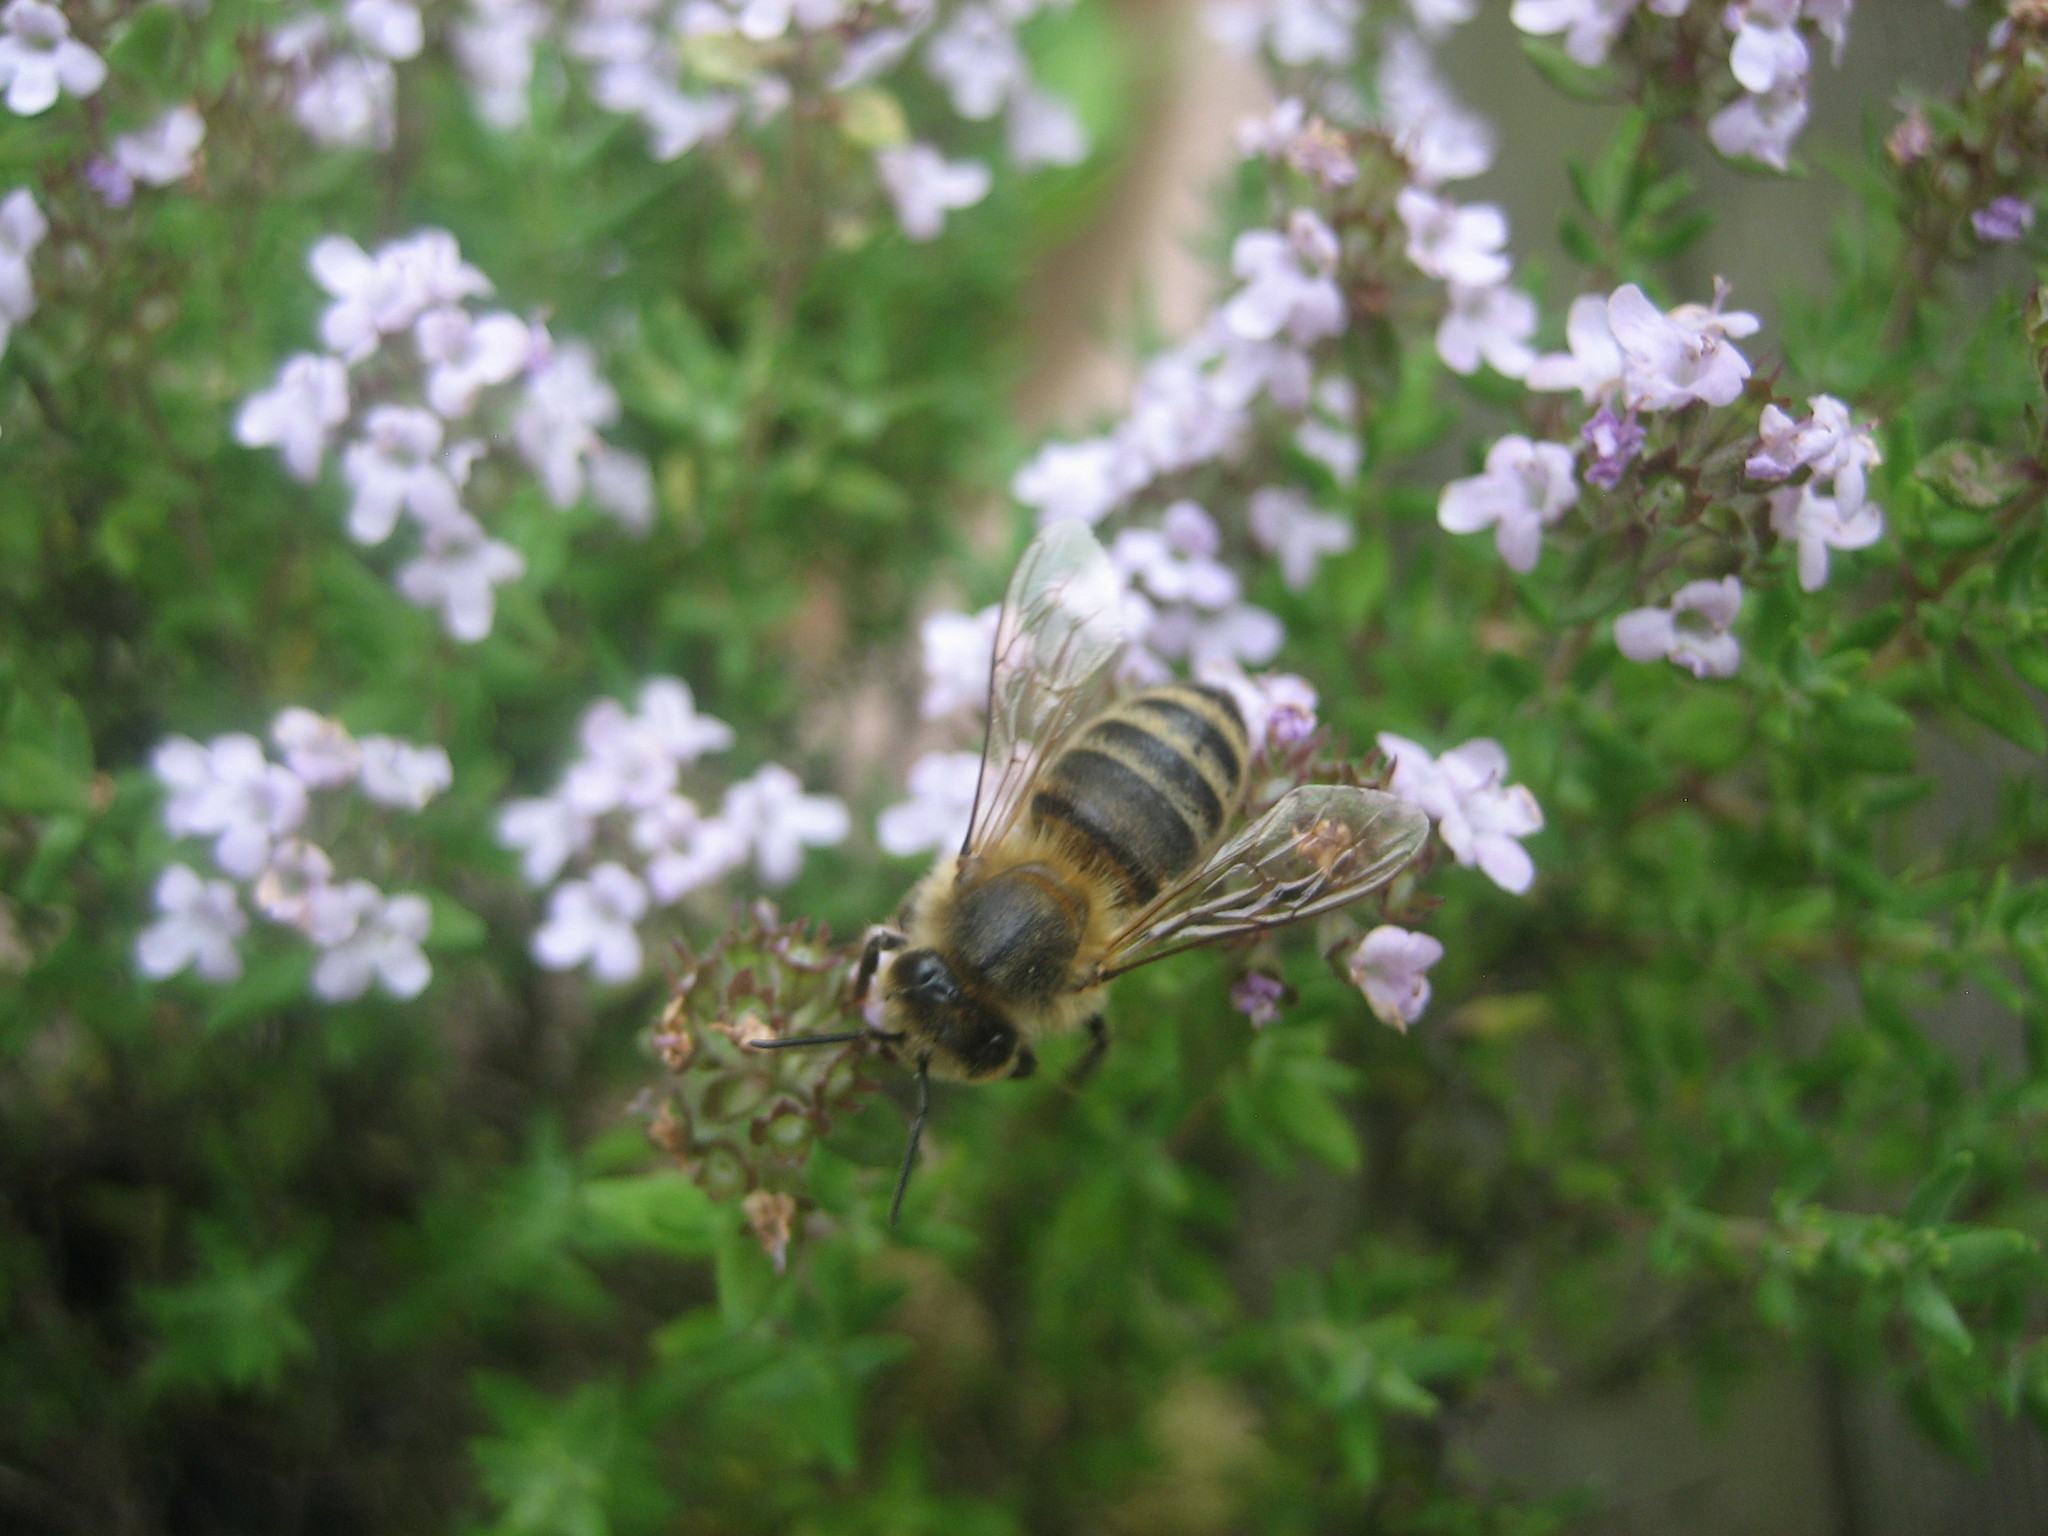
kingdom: Animalia
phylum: Arthropoda
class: Insecta
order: Hymenoptera
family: Apidae
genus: Apis
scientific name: Apis mellifera
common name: Honey bee
